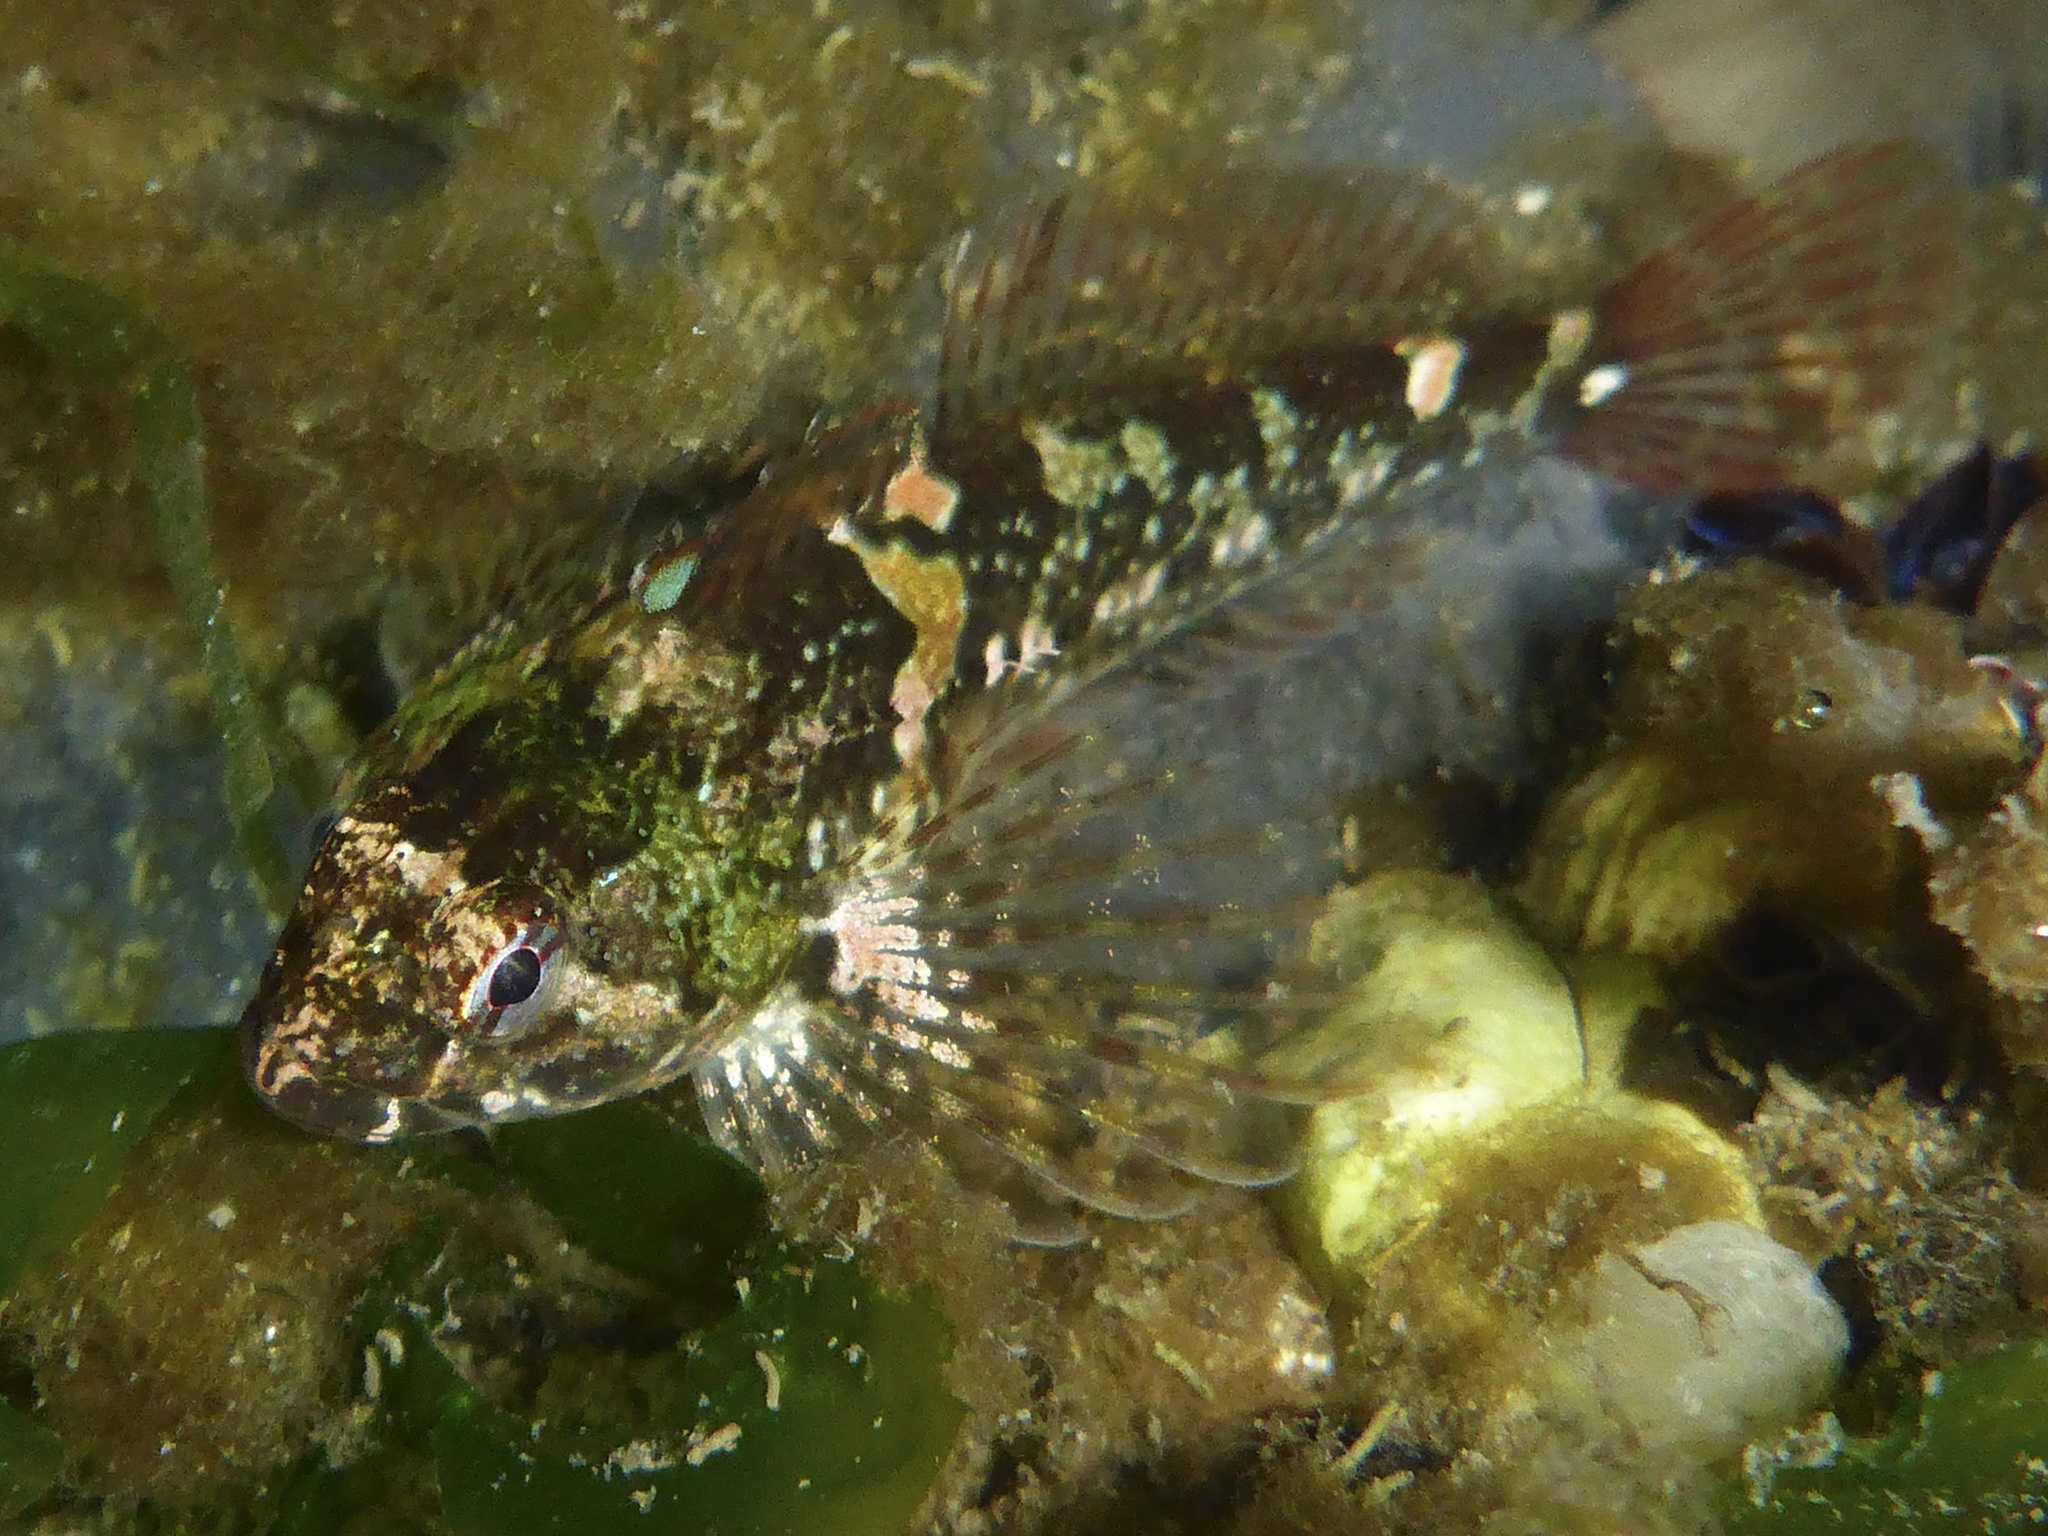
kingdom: Animalia
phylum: Chordata
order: Scorpaeniformes
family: Cottidae
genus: Oligocottus
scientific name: Oligocottus maculosus
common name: Tidepool sculpin
